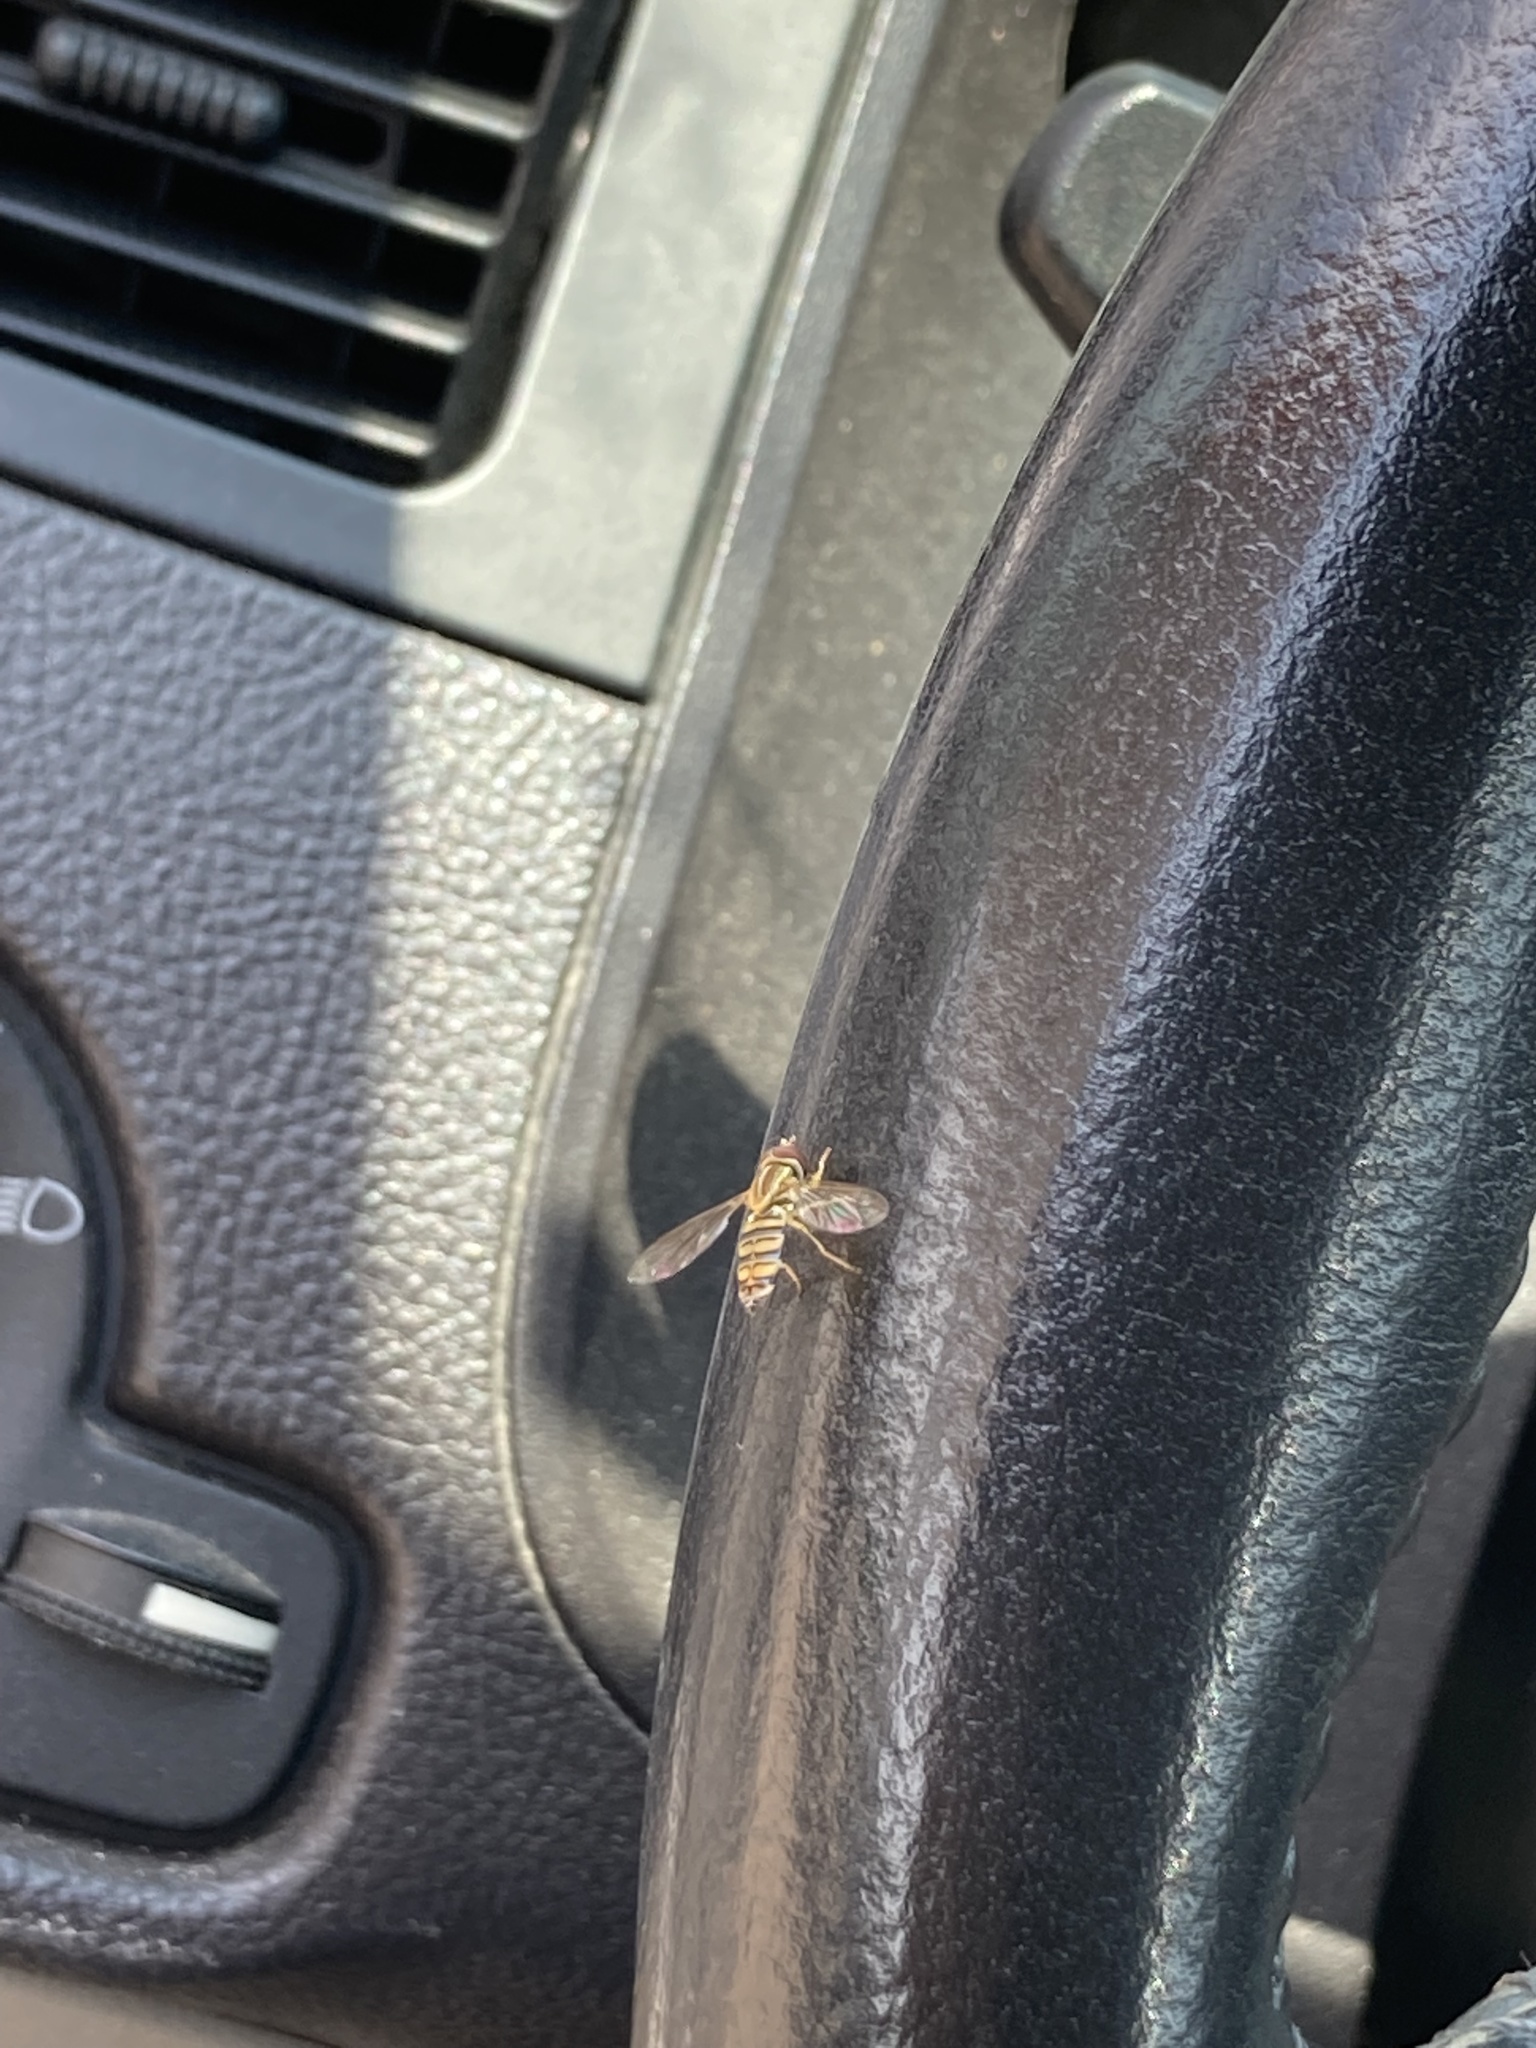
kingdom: Animalia
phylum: Arthropoda
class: Insecta
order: Diptera
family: Syrphidae
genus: Toxomerus
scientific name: Toxomerus politus
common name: Maize calligrapher
